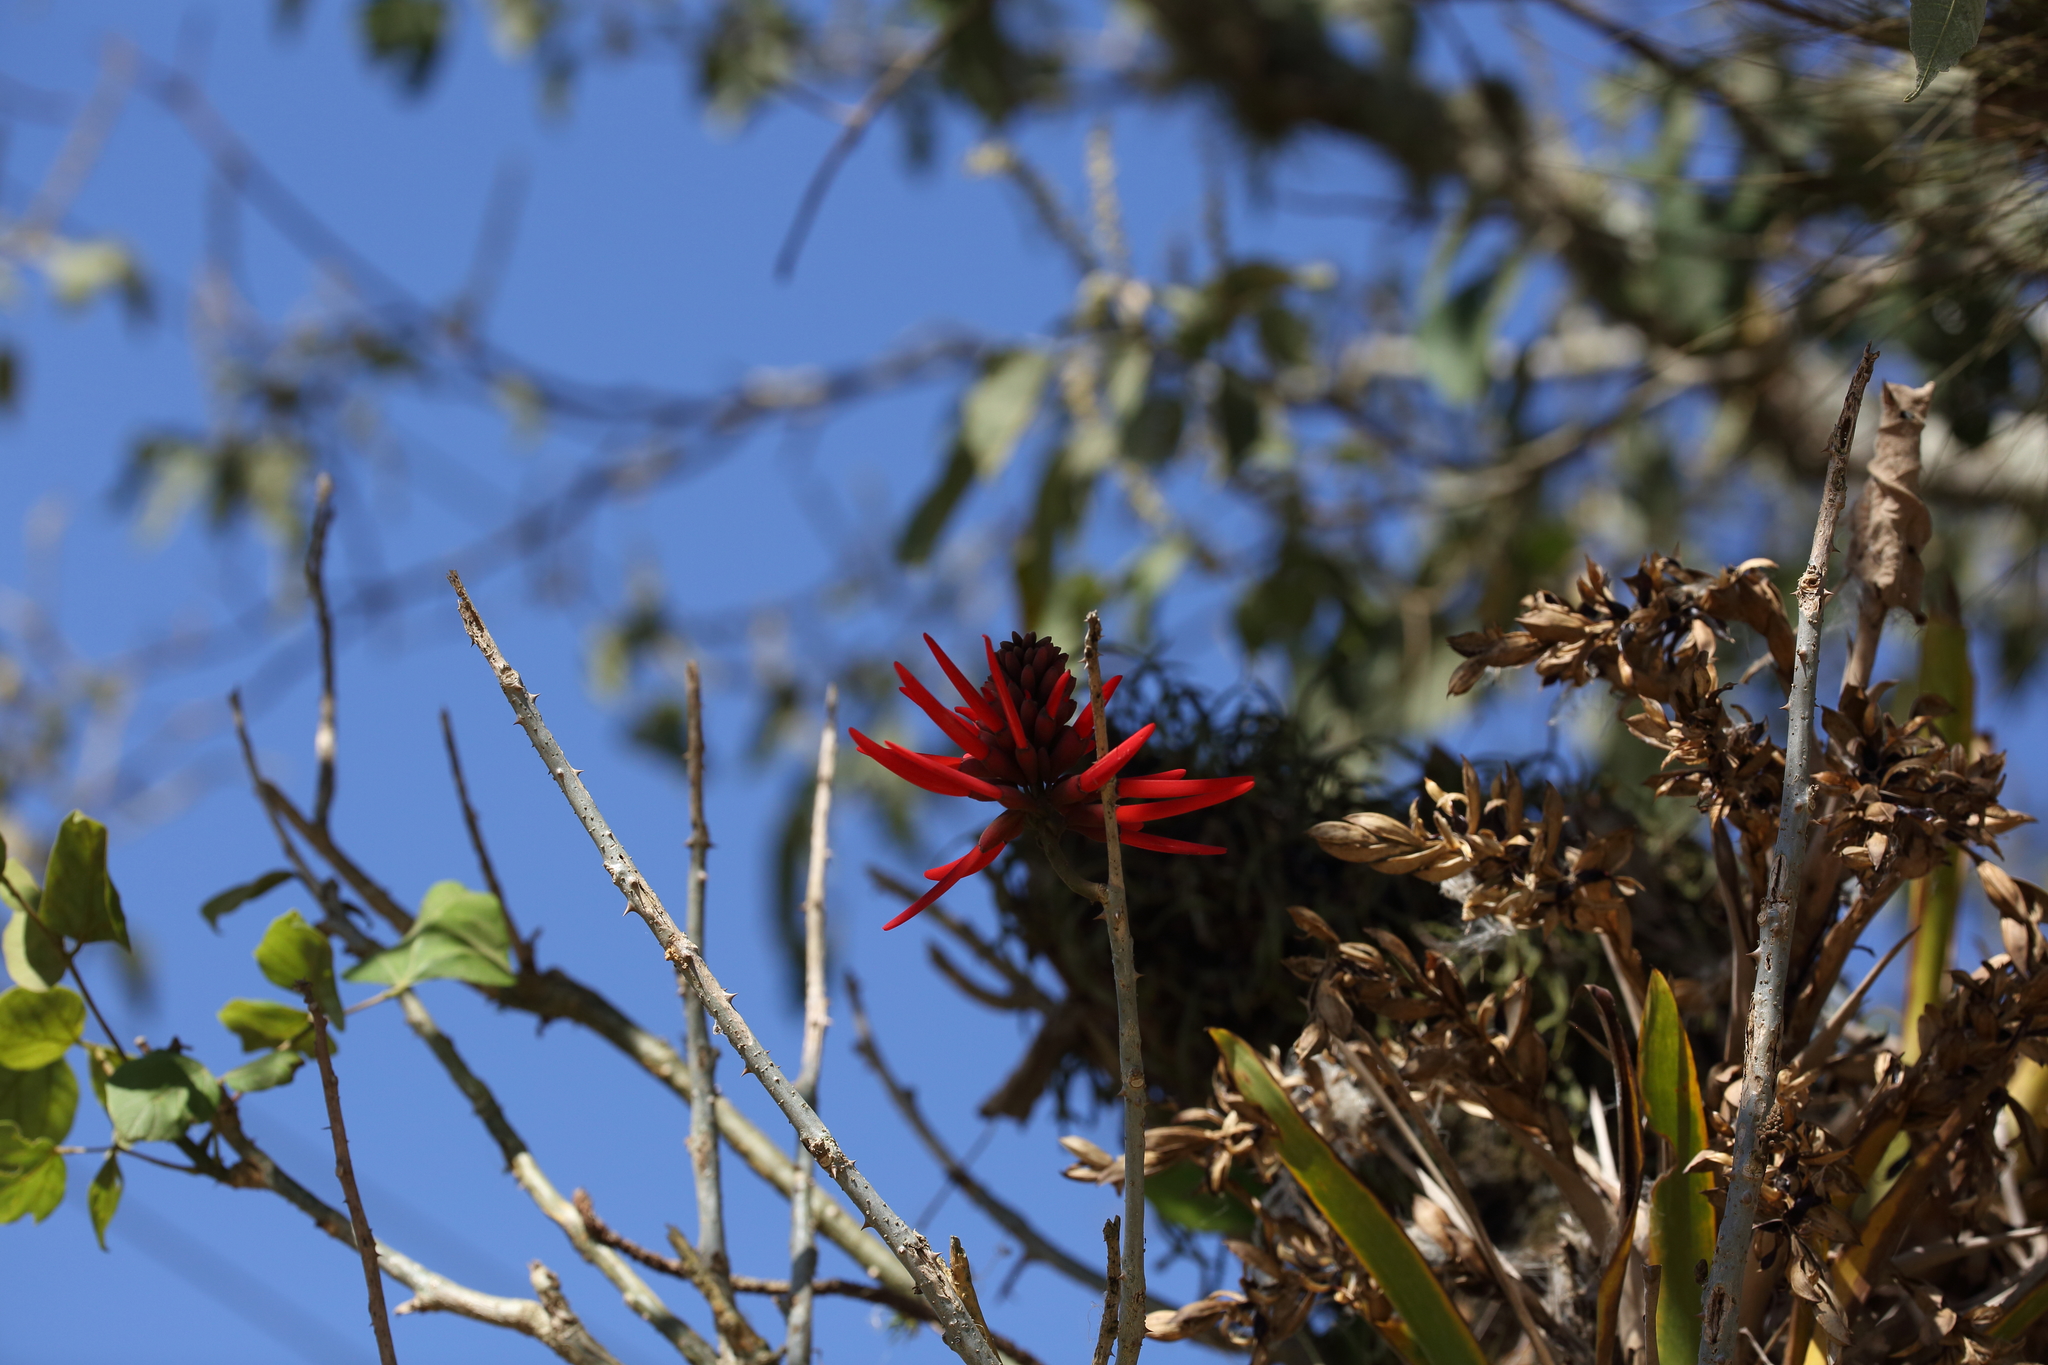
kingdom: Plantae
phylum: Tracheophyta
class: Magnoliopsida
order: Fabales
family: Fabaceae
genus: Erythrina
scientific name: Erythrina americana
